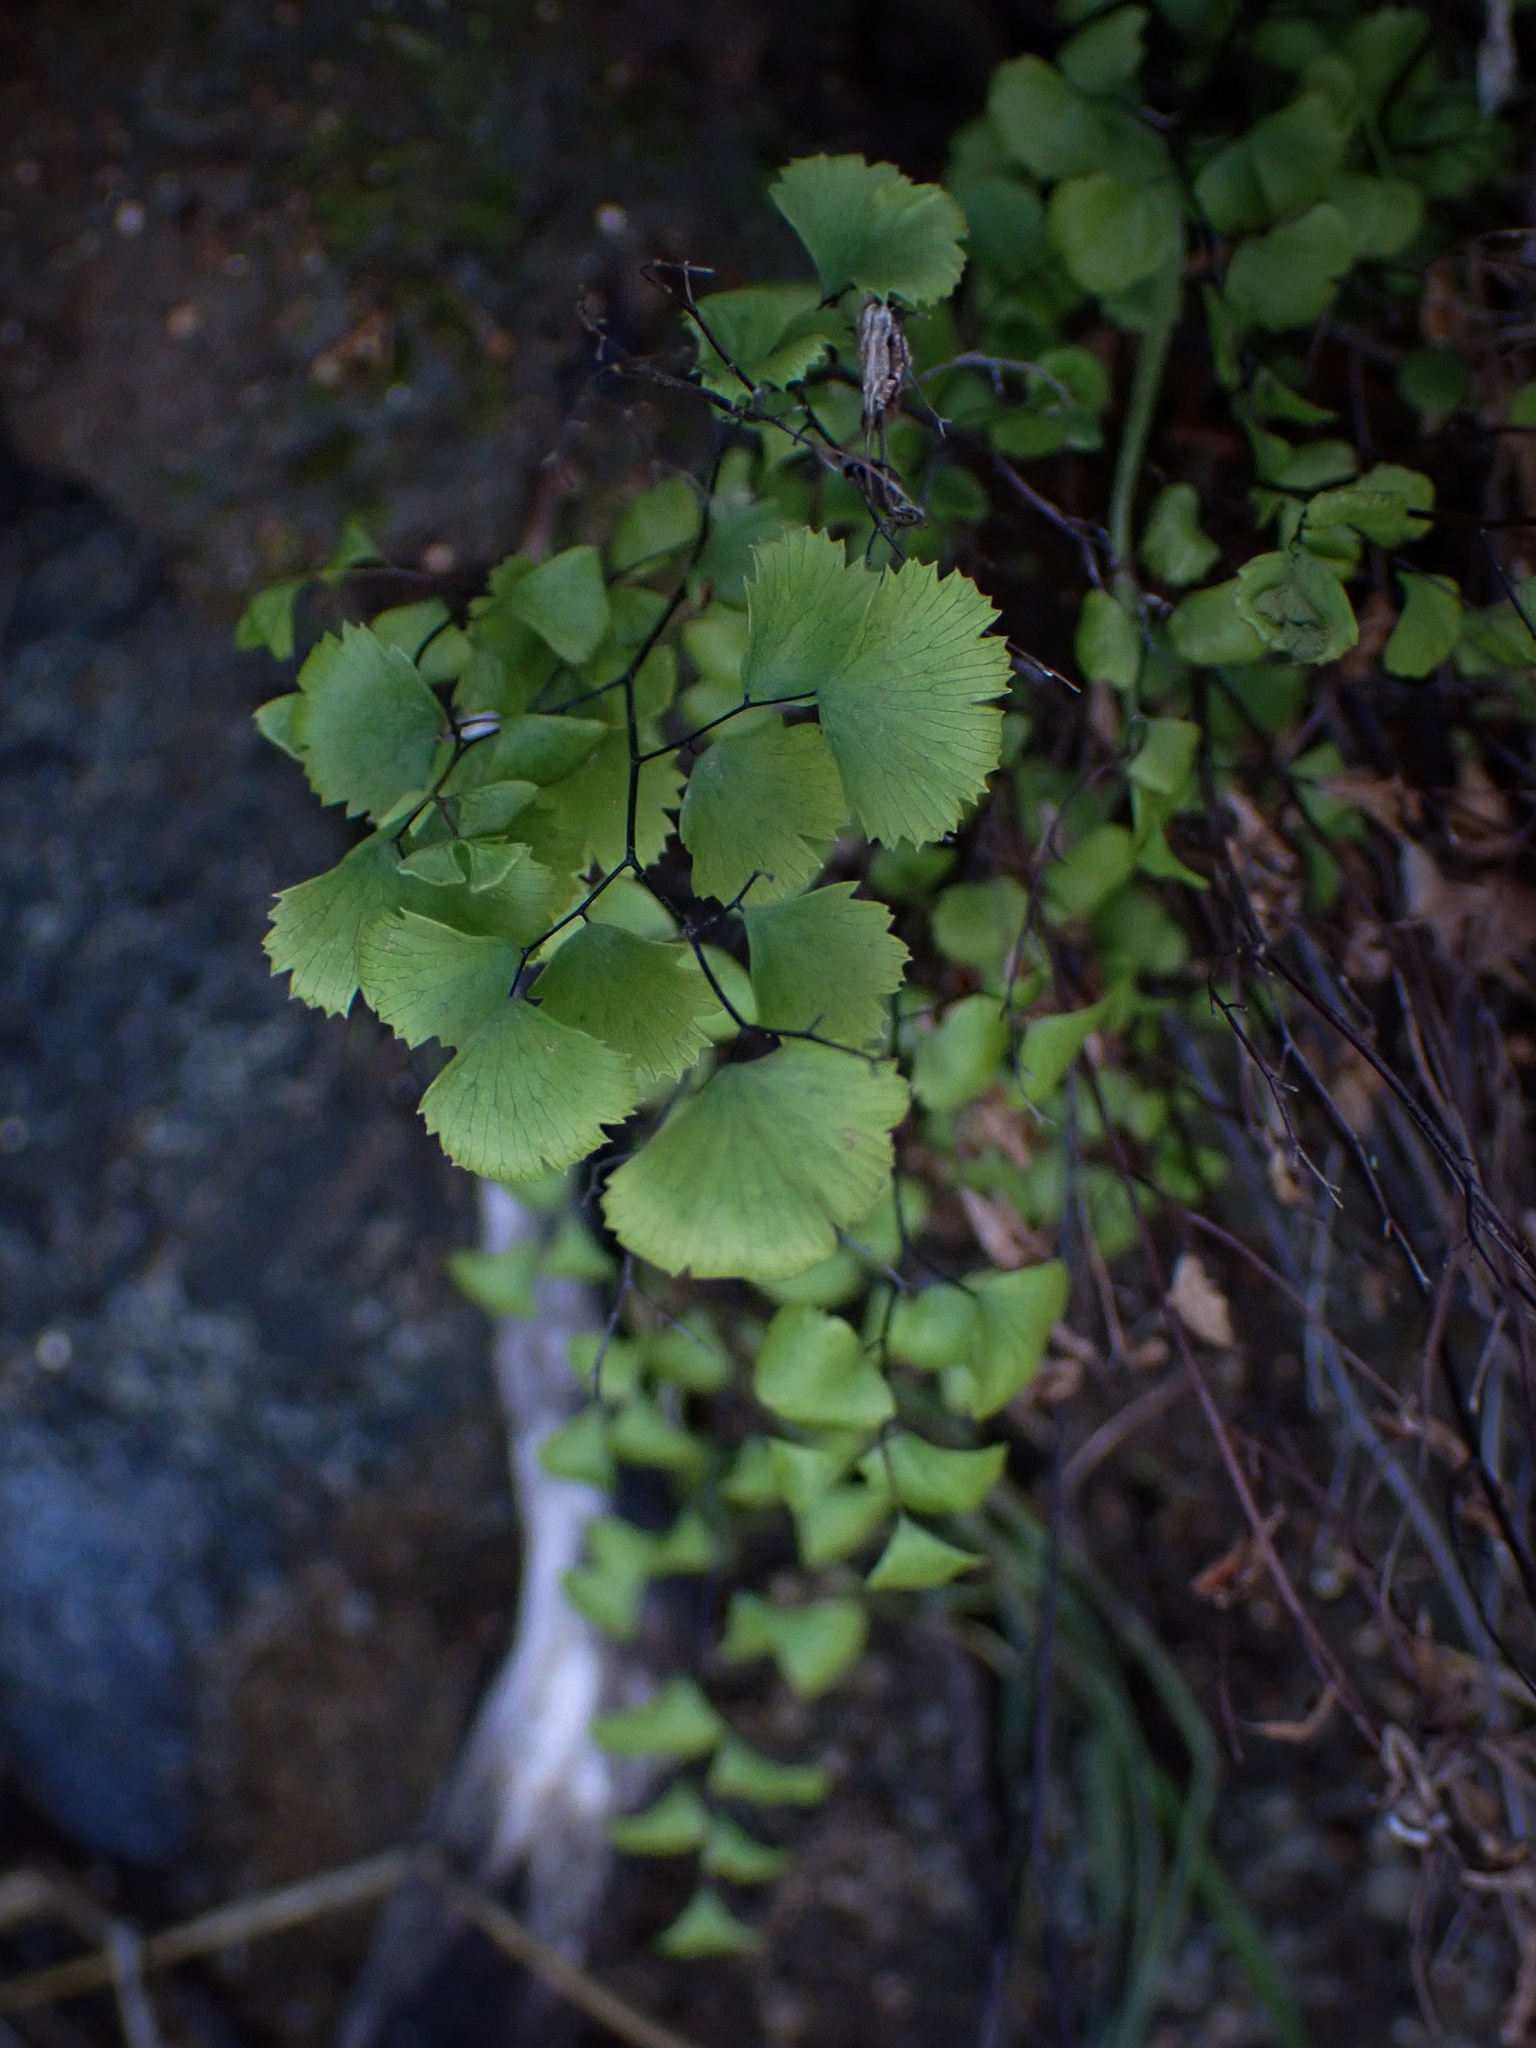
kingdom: Plantae
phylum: Tracheophyta
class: Polypodiopsida
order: Polypodiales
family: Pteridaceae
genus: Adiantum
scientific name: Adiantum jordanii
